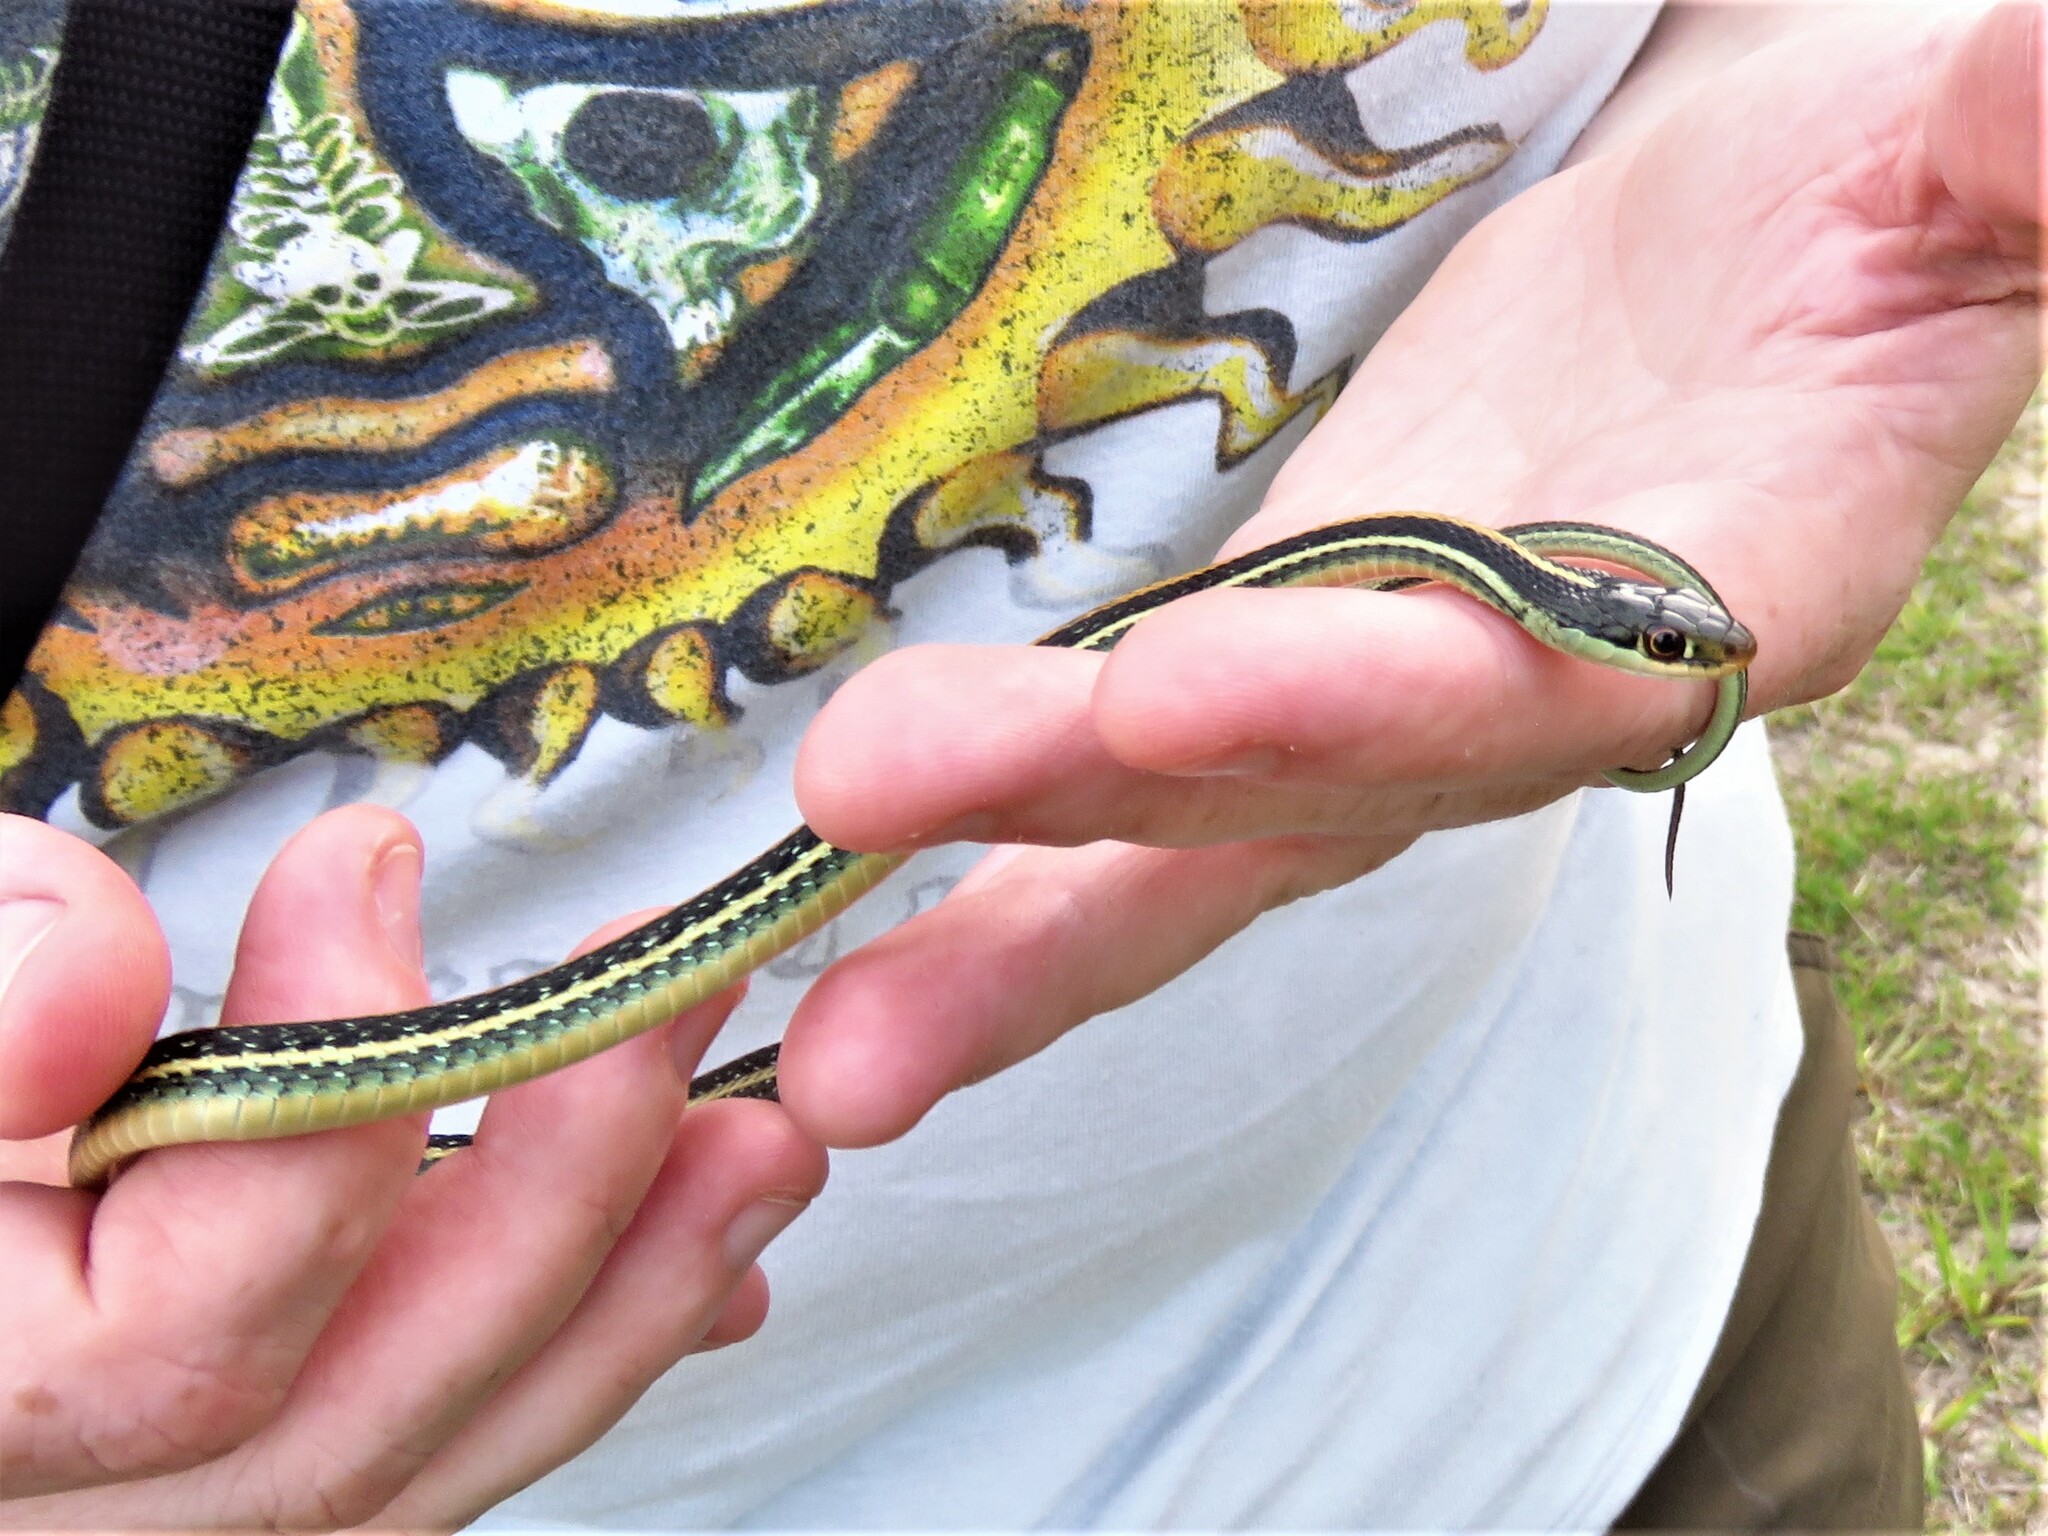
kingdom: Animalia
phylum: Chordata
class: Squamata
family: Colubridae
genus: Thamnophis
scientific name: Thamnophis proximus
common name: Western ribbon snake
